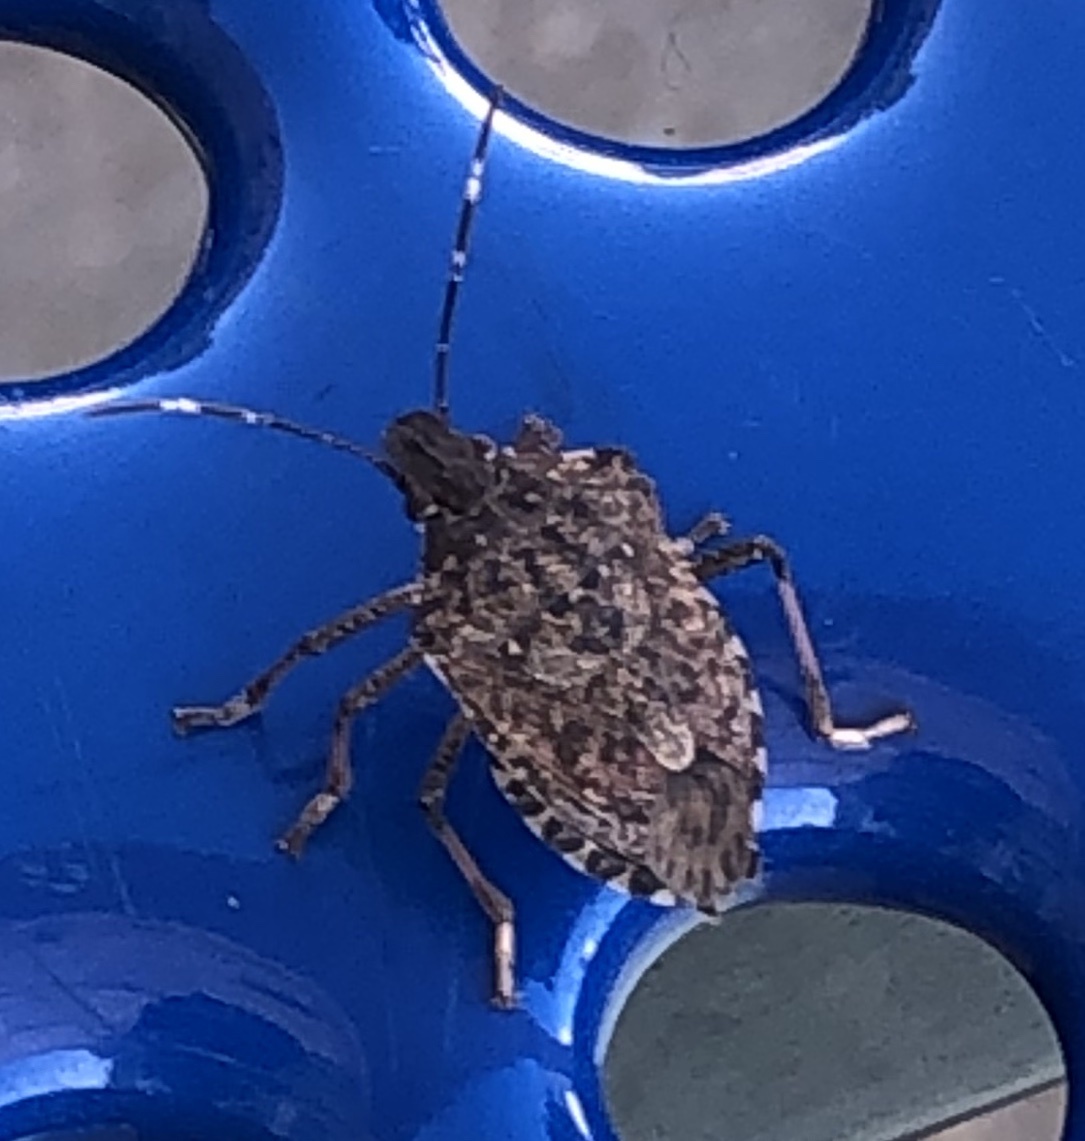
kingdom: Animalia
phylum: Arthropoda
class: Insecta
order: Hemiptera
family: Pentatomidae
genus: Halyomorpha
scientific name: Halyomorpha halys
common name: Brown marmorated stink bug
